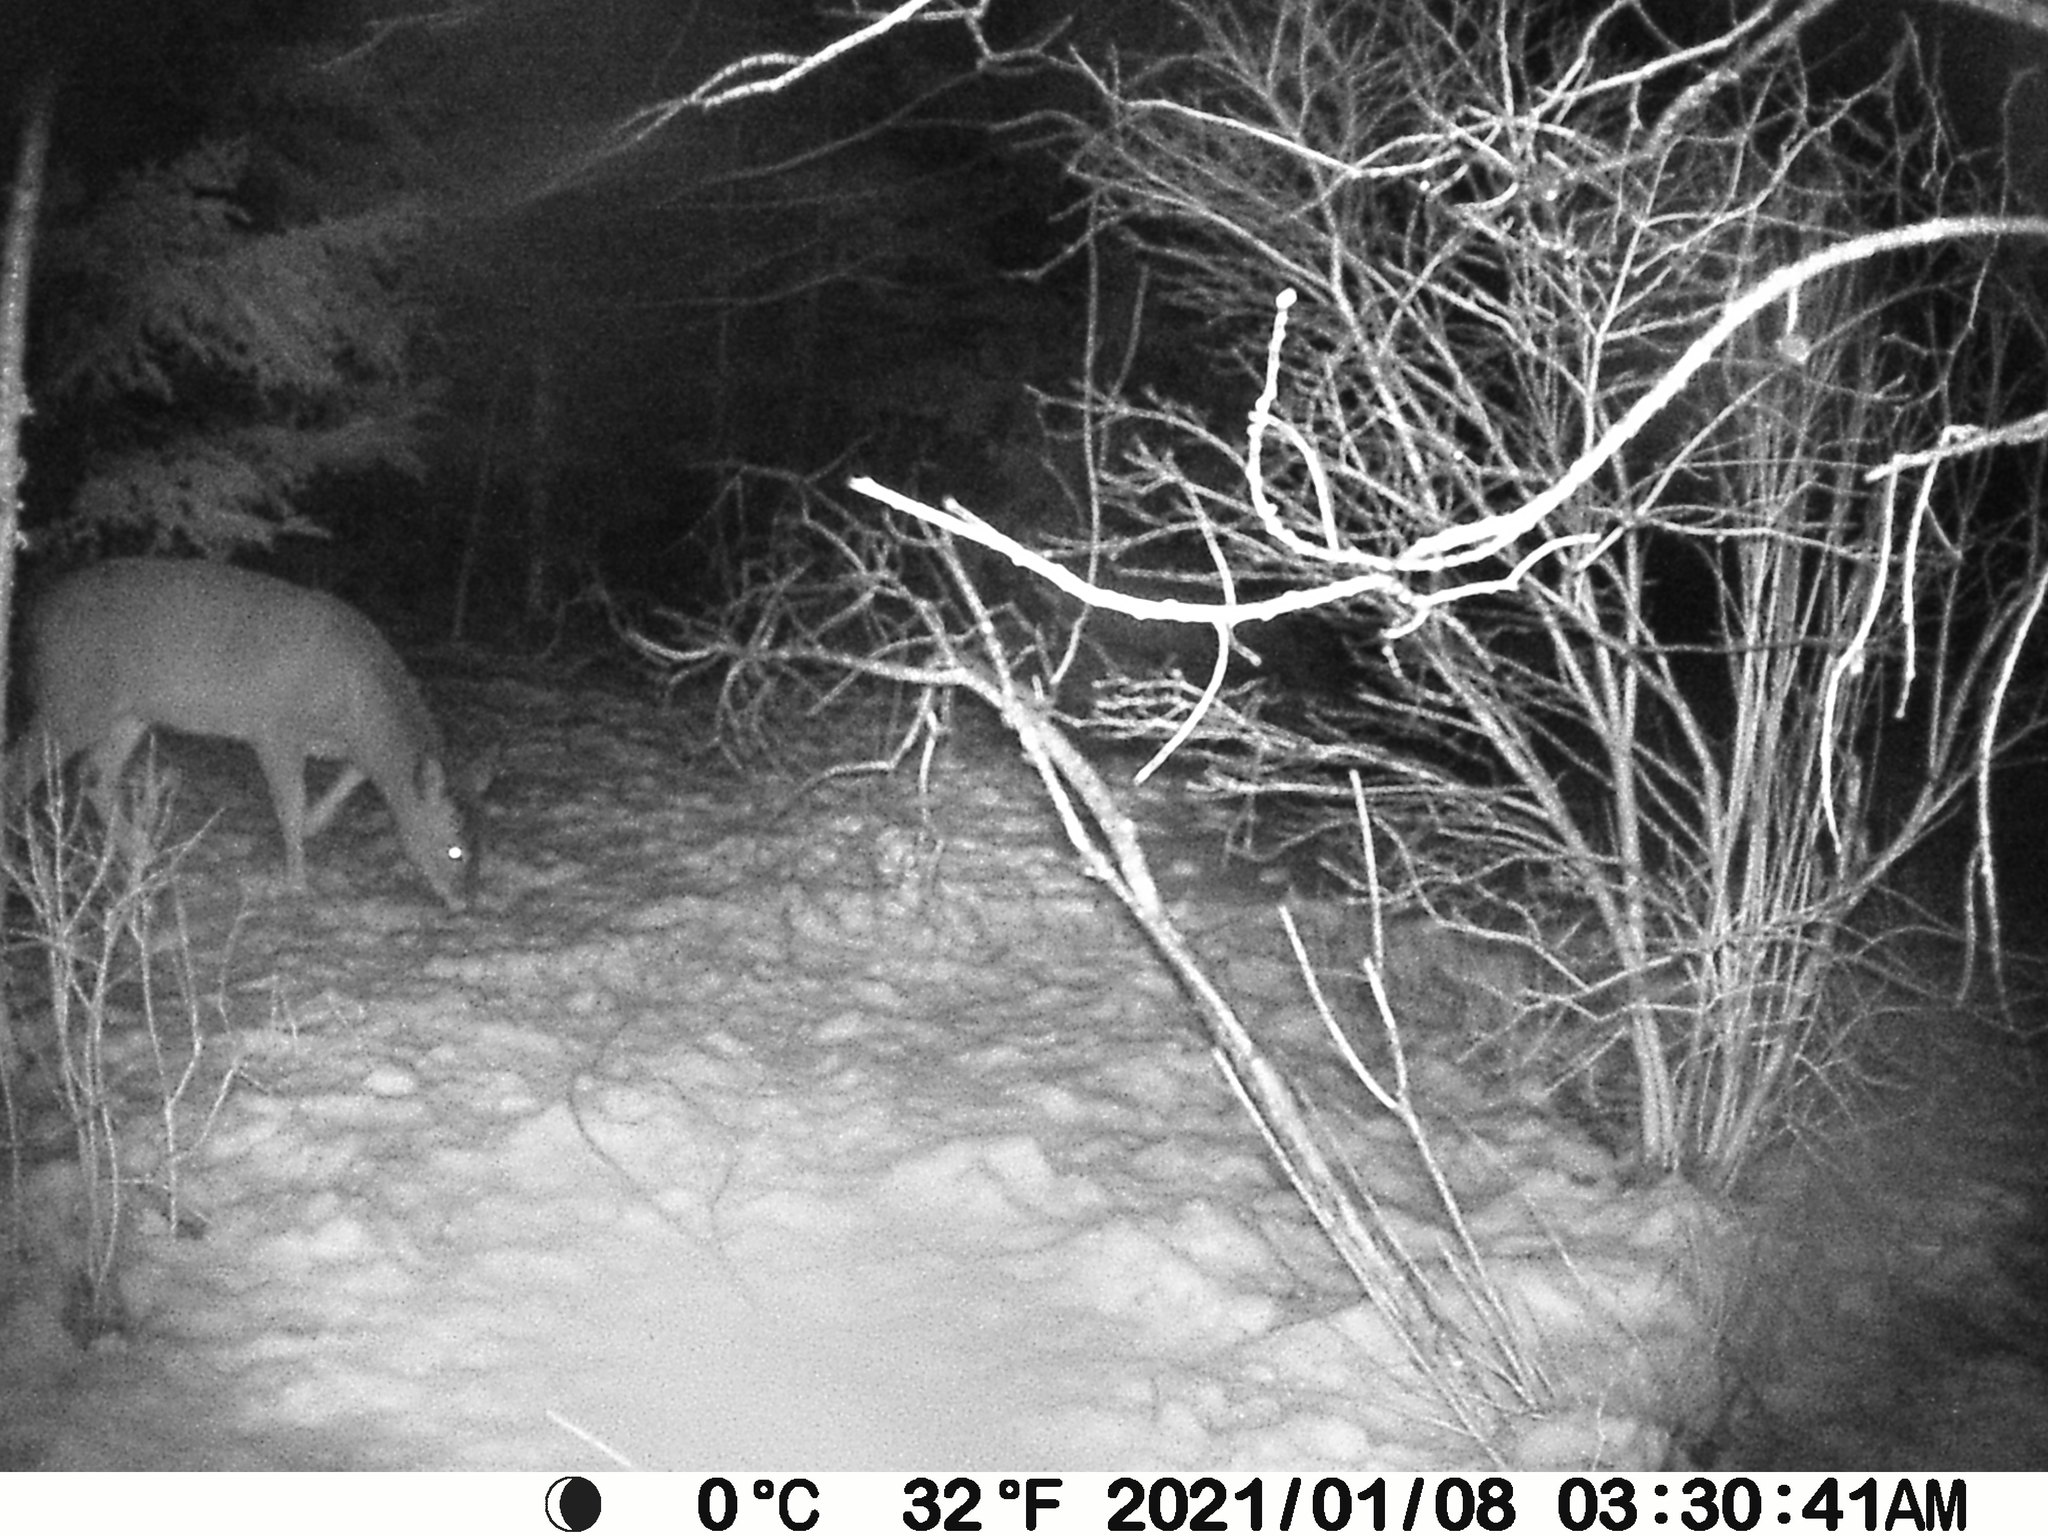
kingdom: Animalia
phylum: Chordata
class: Mammalia
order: Artiodactyla
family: Cervidae
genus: Odocoileus
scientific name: Odocoileus virginianus
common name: White-tailed deer
